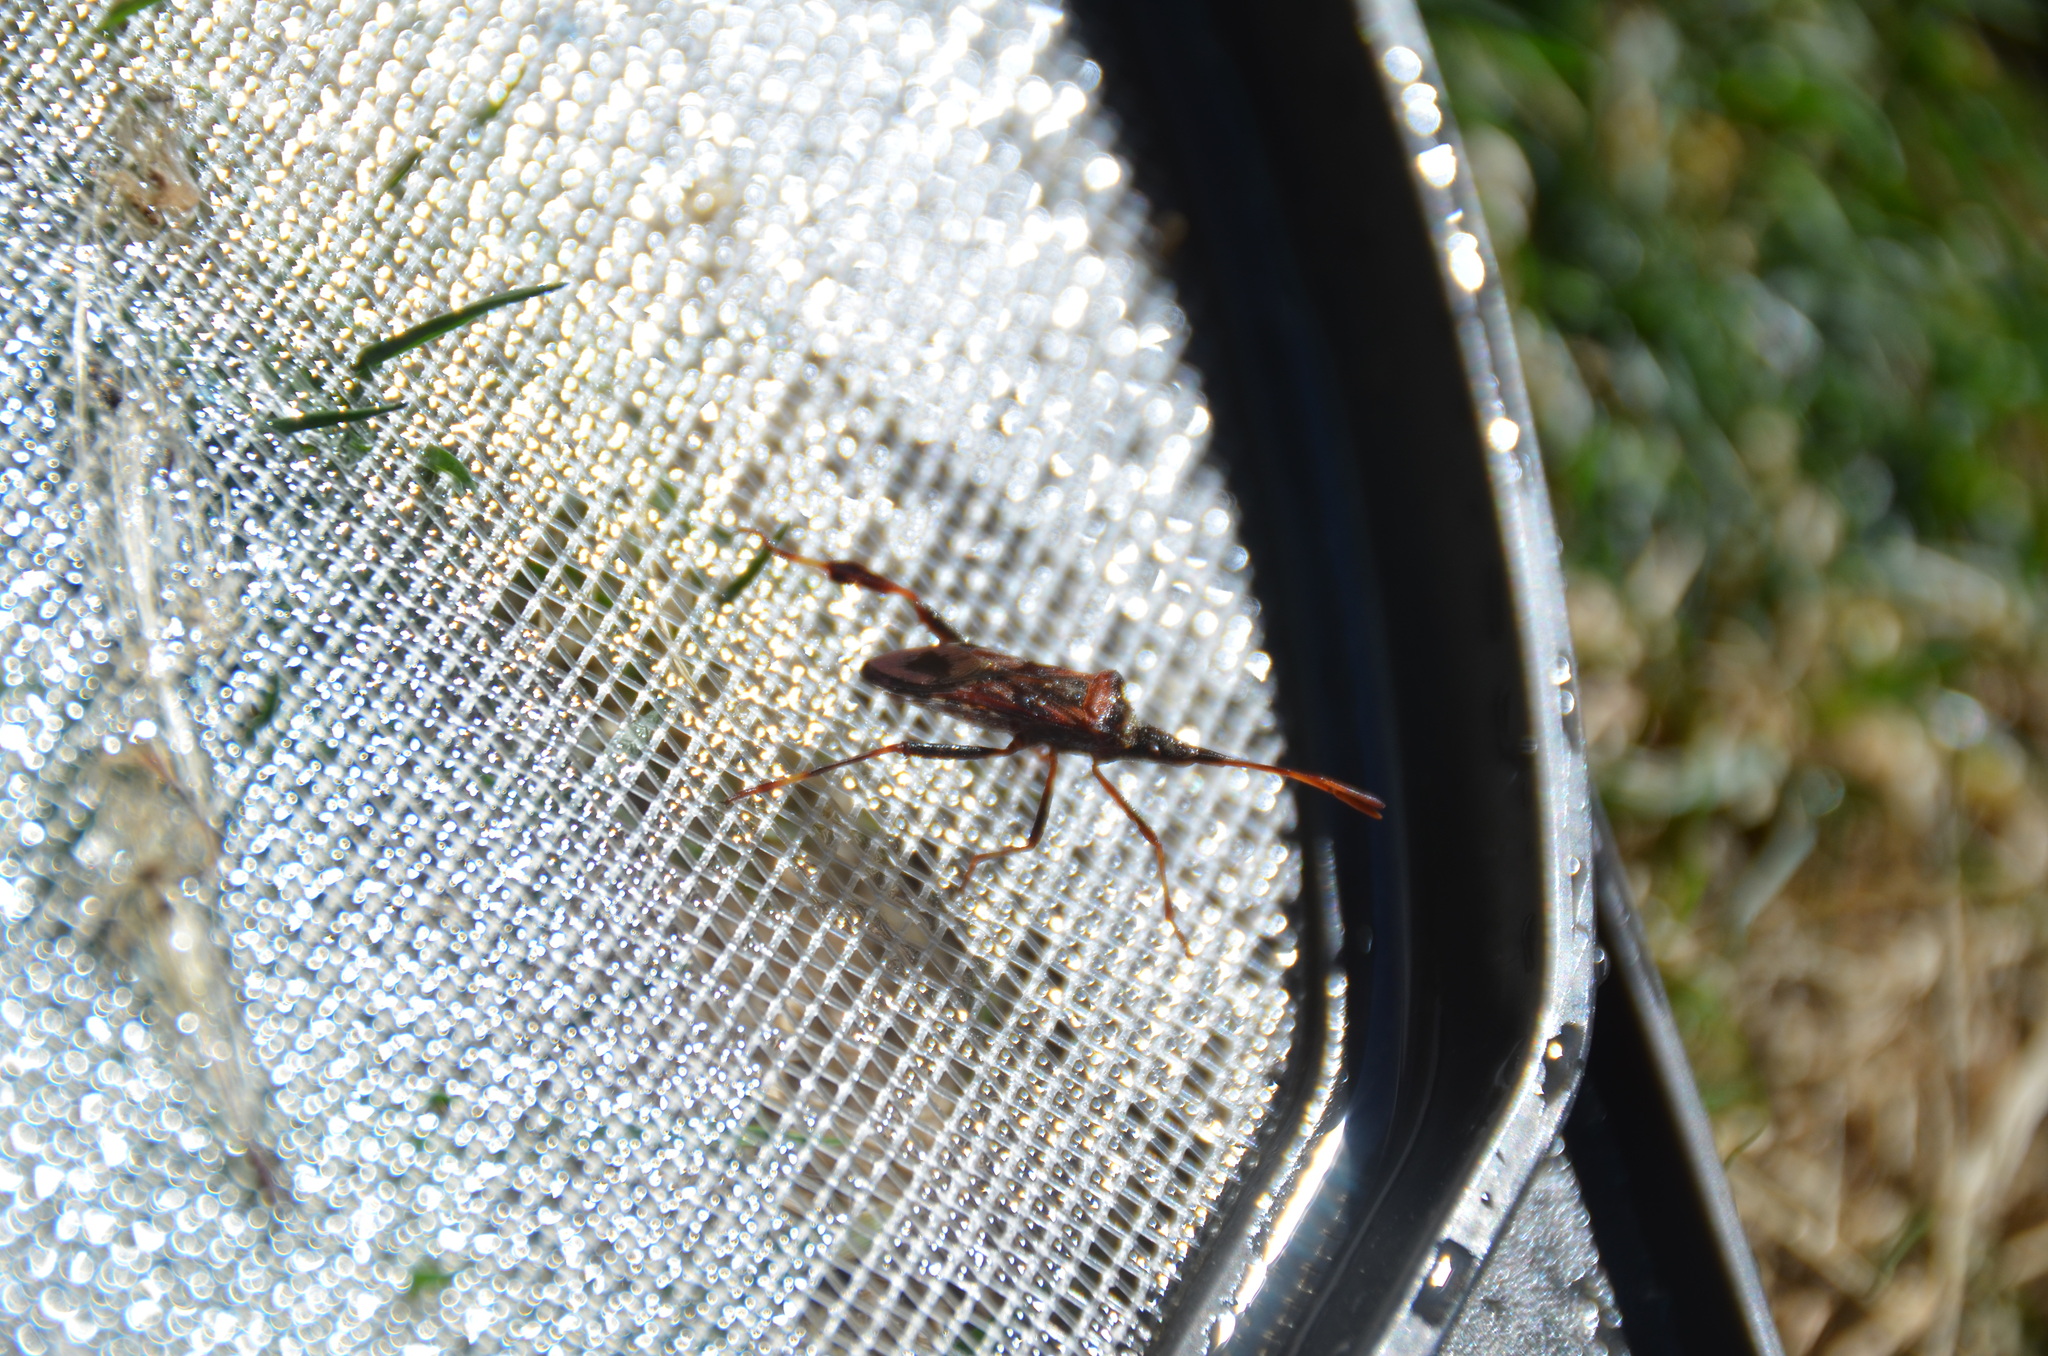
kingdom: Animalia
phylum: Arthropoda
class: Insecta
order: Hemiptera
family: Coreidae
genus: Leptoglossus
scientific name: Leptoglossus occidentalis
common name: Western conifer-seed bug
